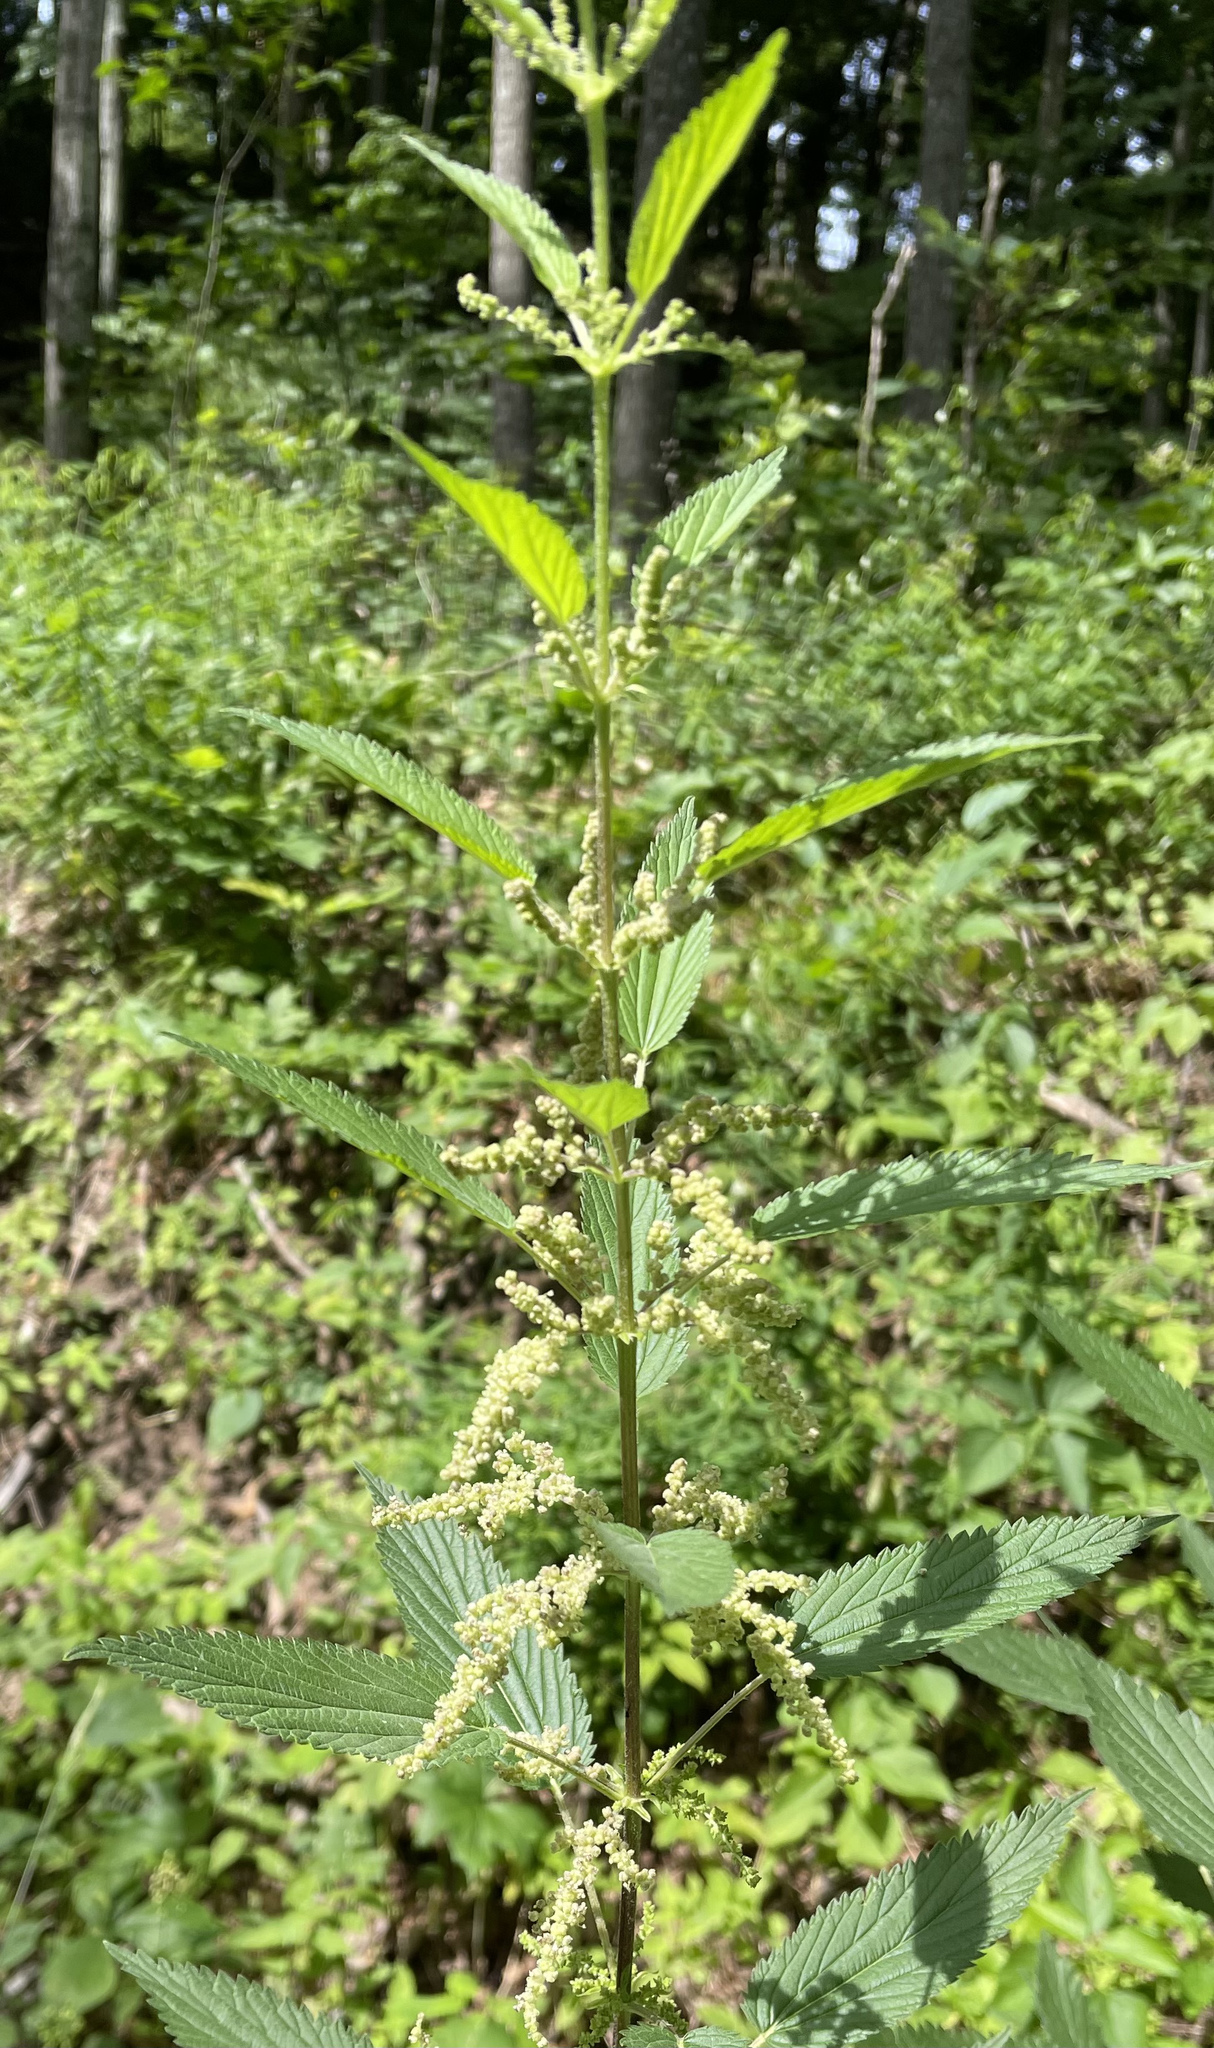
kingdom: Plantae
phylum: Tracheophyta
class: Magnoliopsida
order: Rosales
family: Urticaceae
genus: Urtica
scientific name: Urtica dioica
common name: Common nettle
